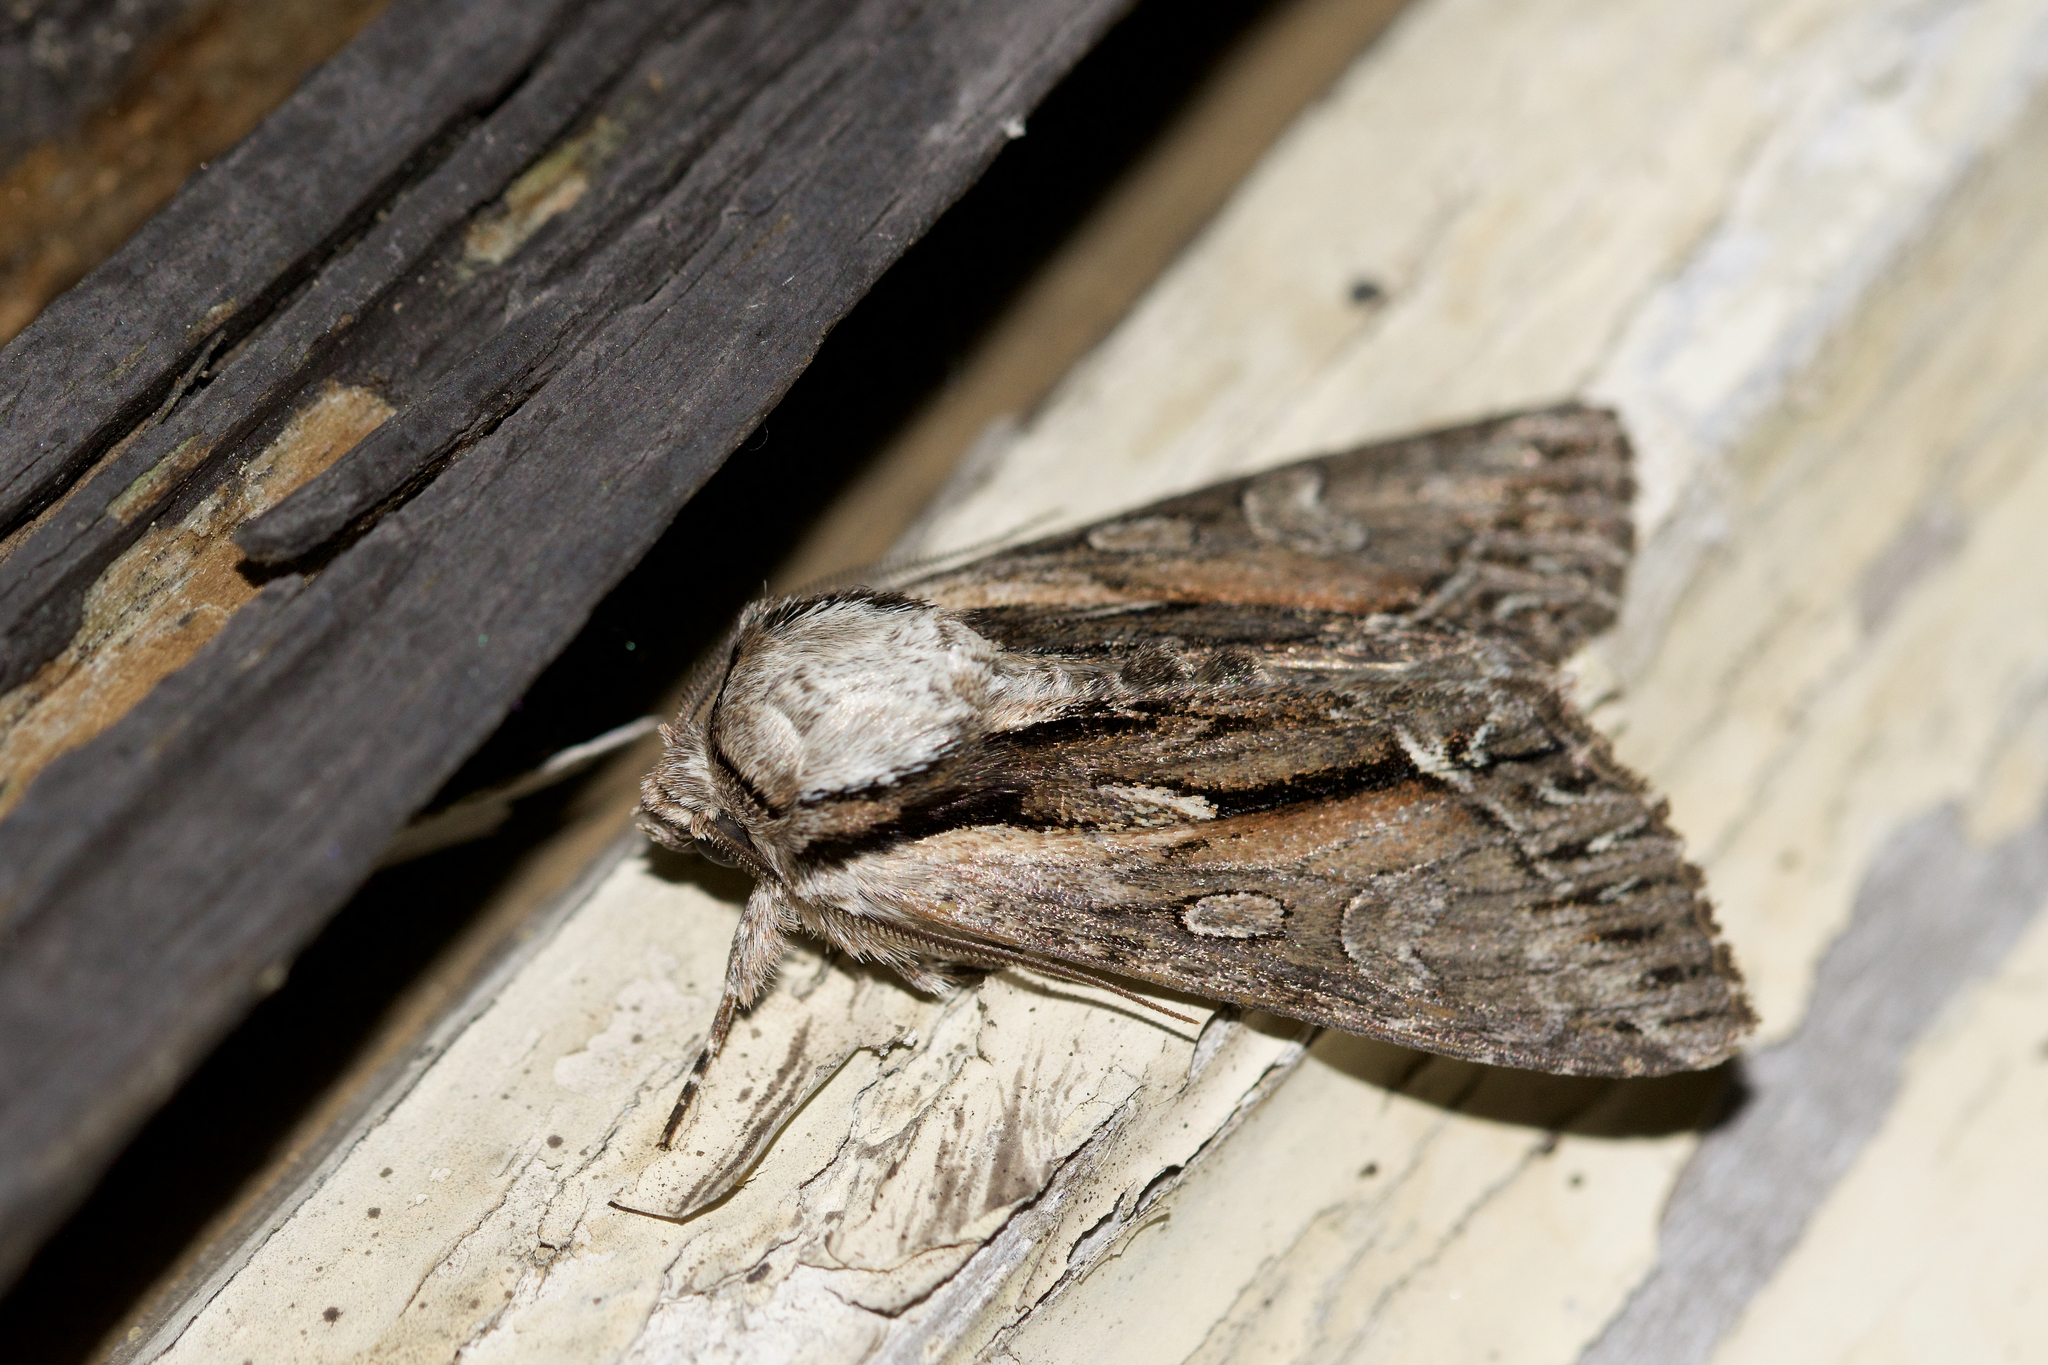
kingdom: Animalia
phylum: Arthropoda
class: Insecta
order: Lepidoptera
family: Noctuidae
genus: Hyppa
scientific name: Hyppa xylinoides
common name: Common hyppa moth
